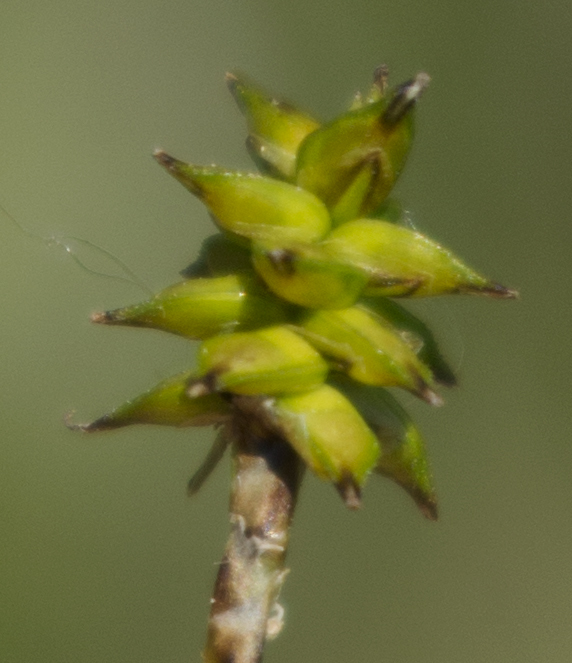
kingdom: Plantae
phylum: Tracheophyta
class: Liliopsida
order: Poales
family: Cyperaceae
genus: Carex
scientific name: Carex interior
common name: Inland sedge
